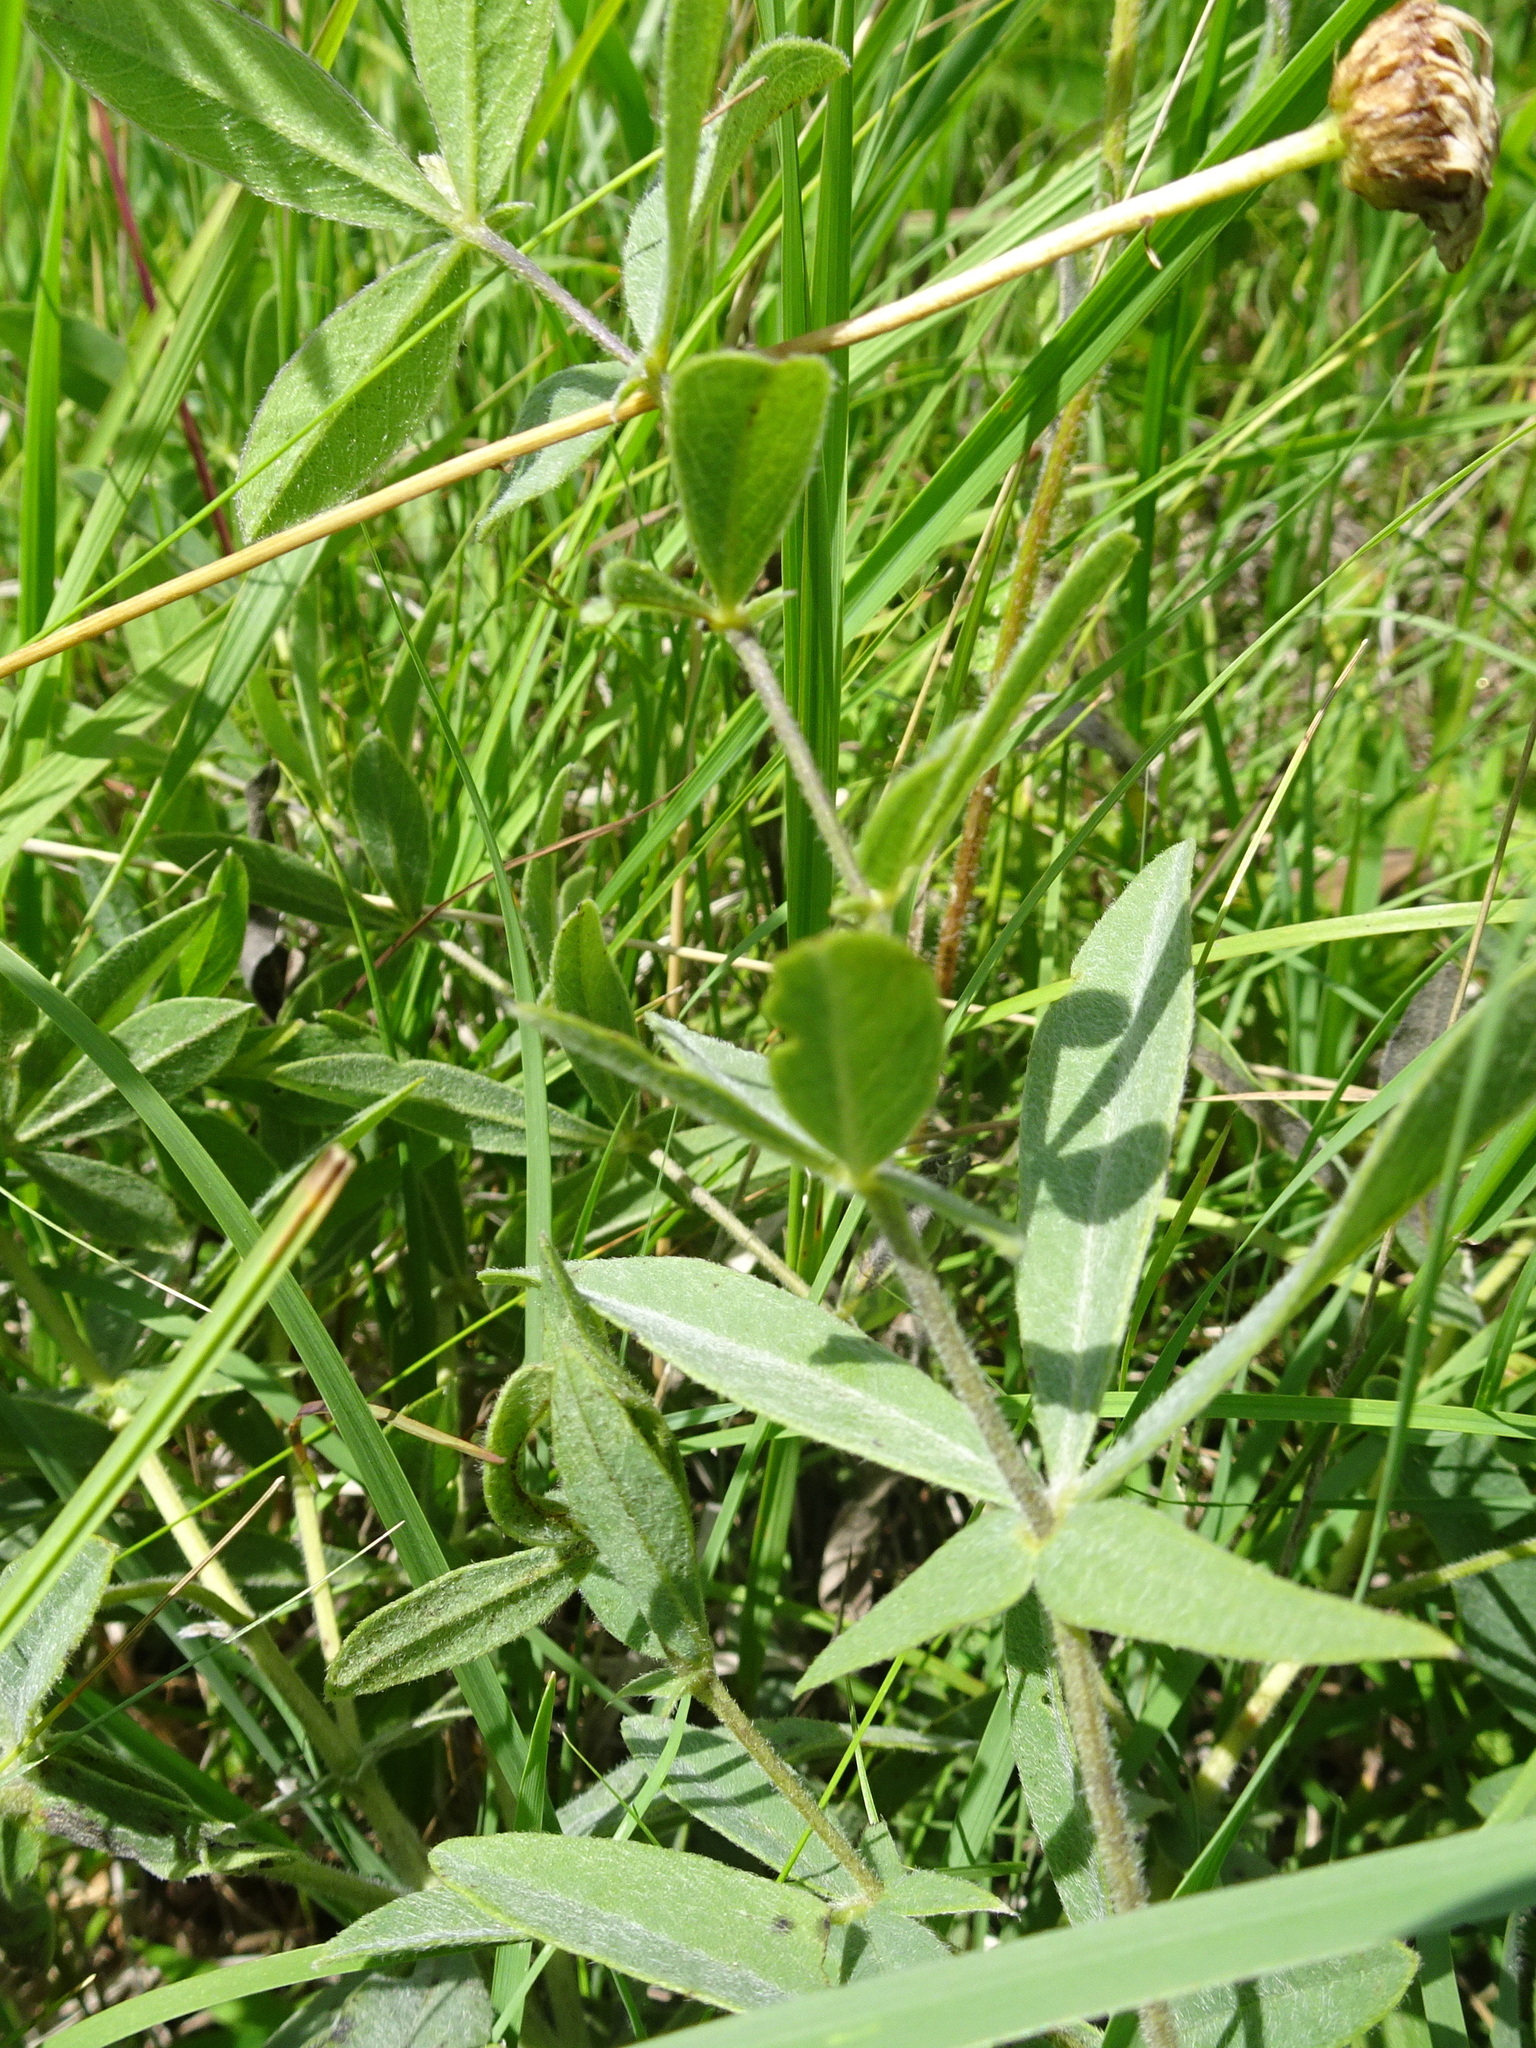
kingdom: Plantae
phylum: Tracheophyta
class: Magnoliopsida
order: Fabales
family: Fabaceae
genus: Baptisia
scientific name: Baptisia bracteata
